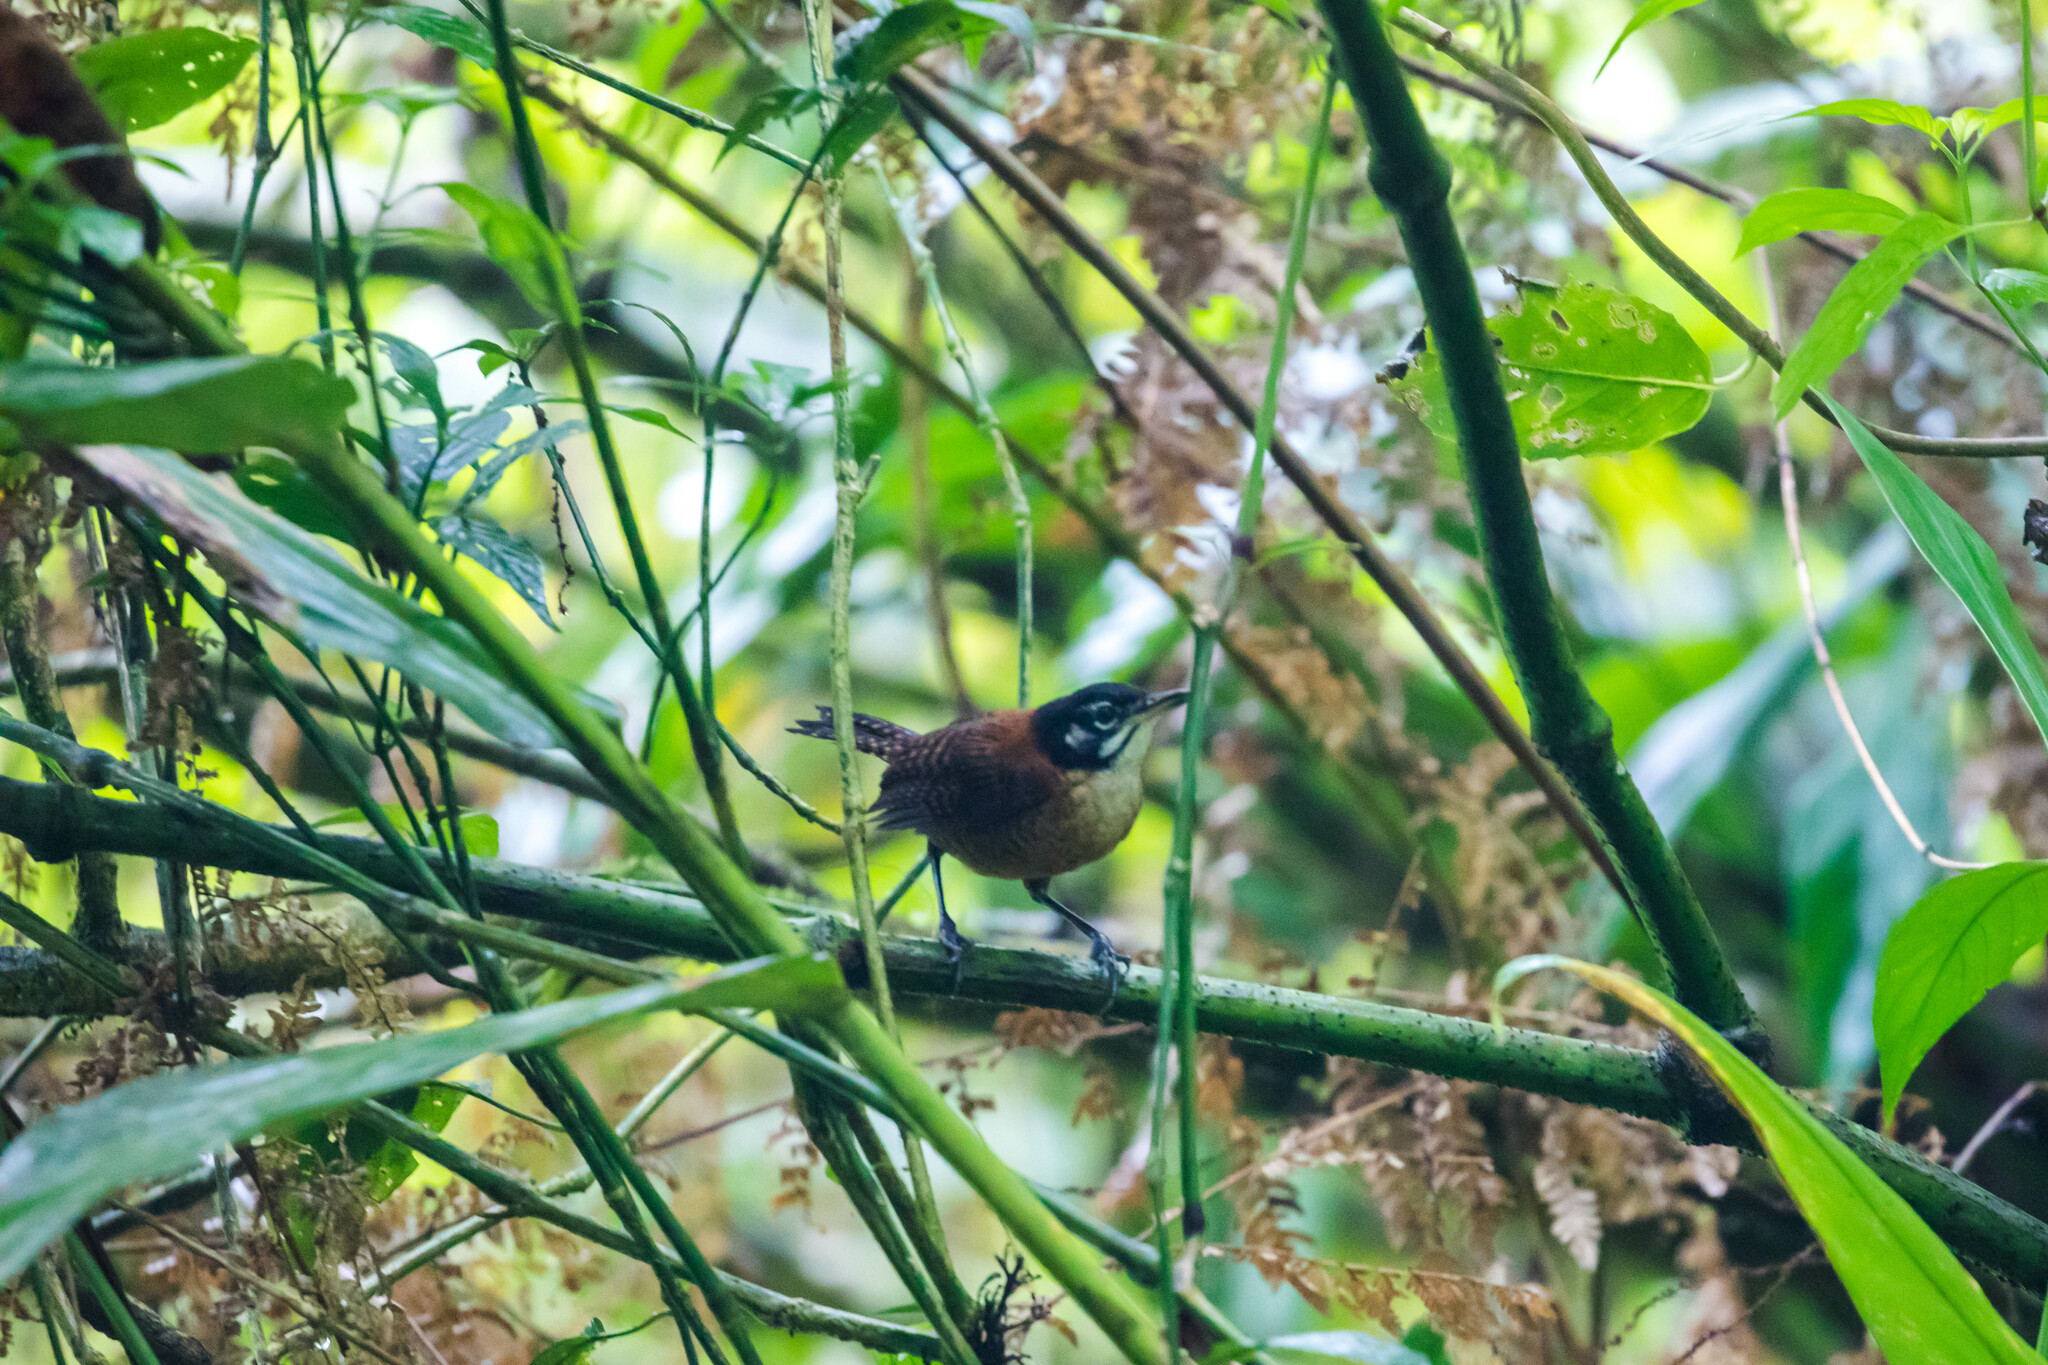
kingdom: Animalia
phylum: Chordata
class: Aves
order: Passeriformes
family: Troglodytidae
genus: Cantorchilus
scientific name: Cantorchilus nigricapillus
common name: Bay wren
